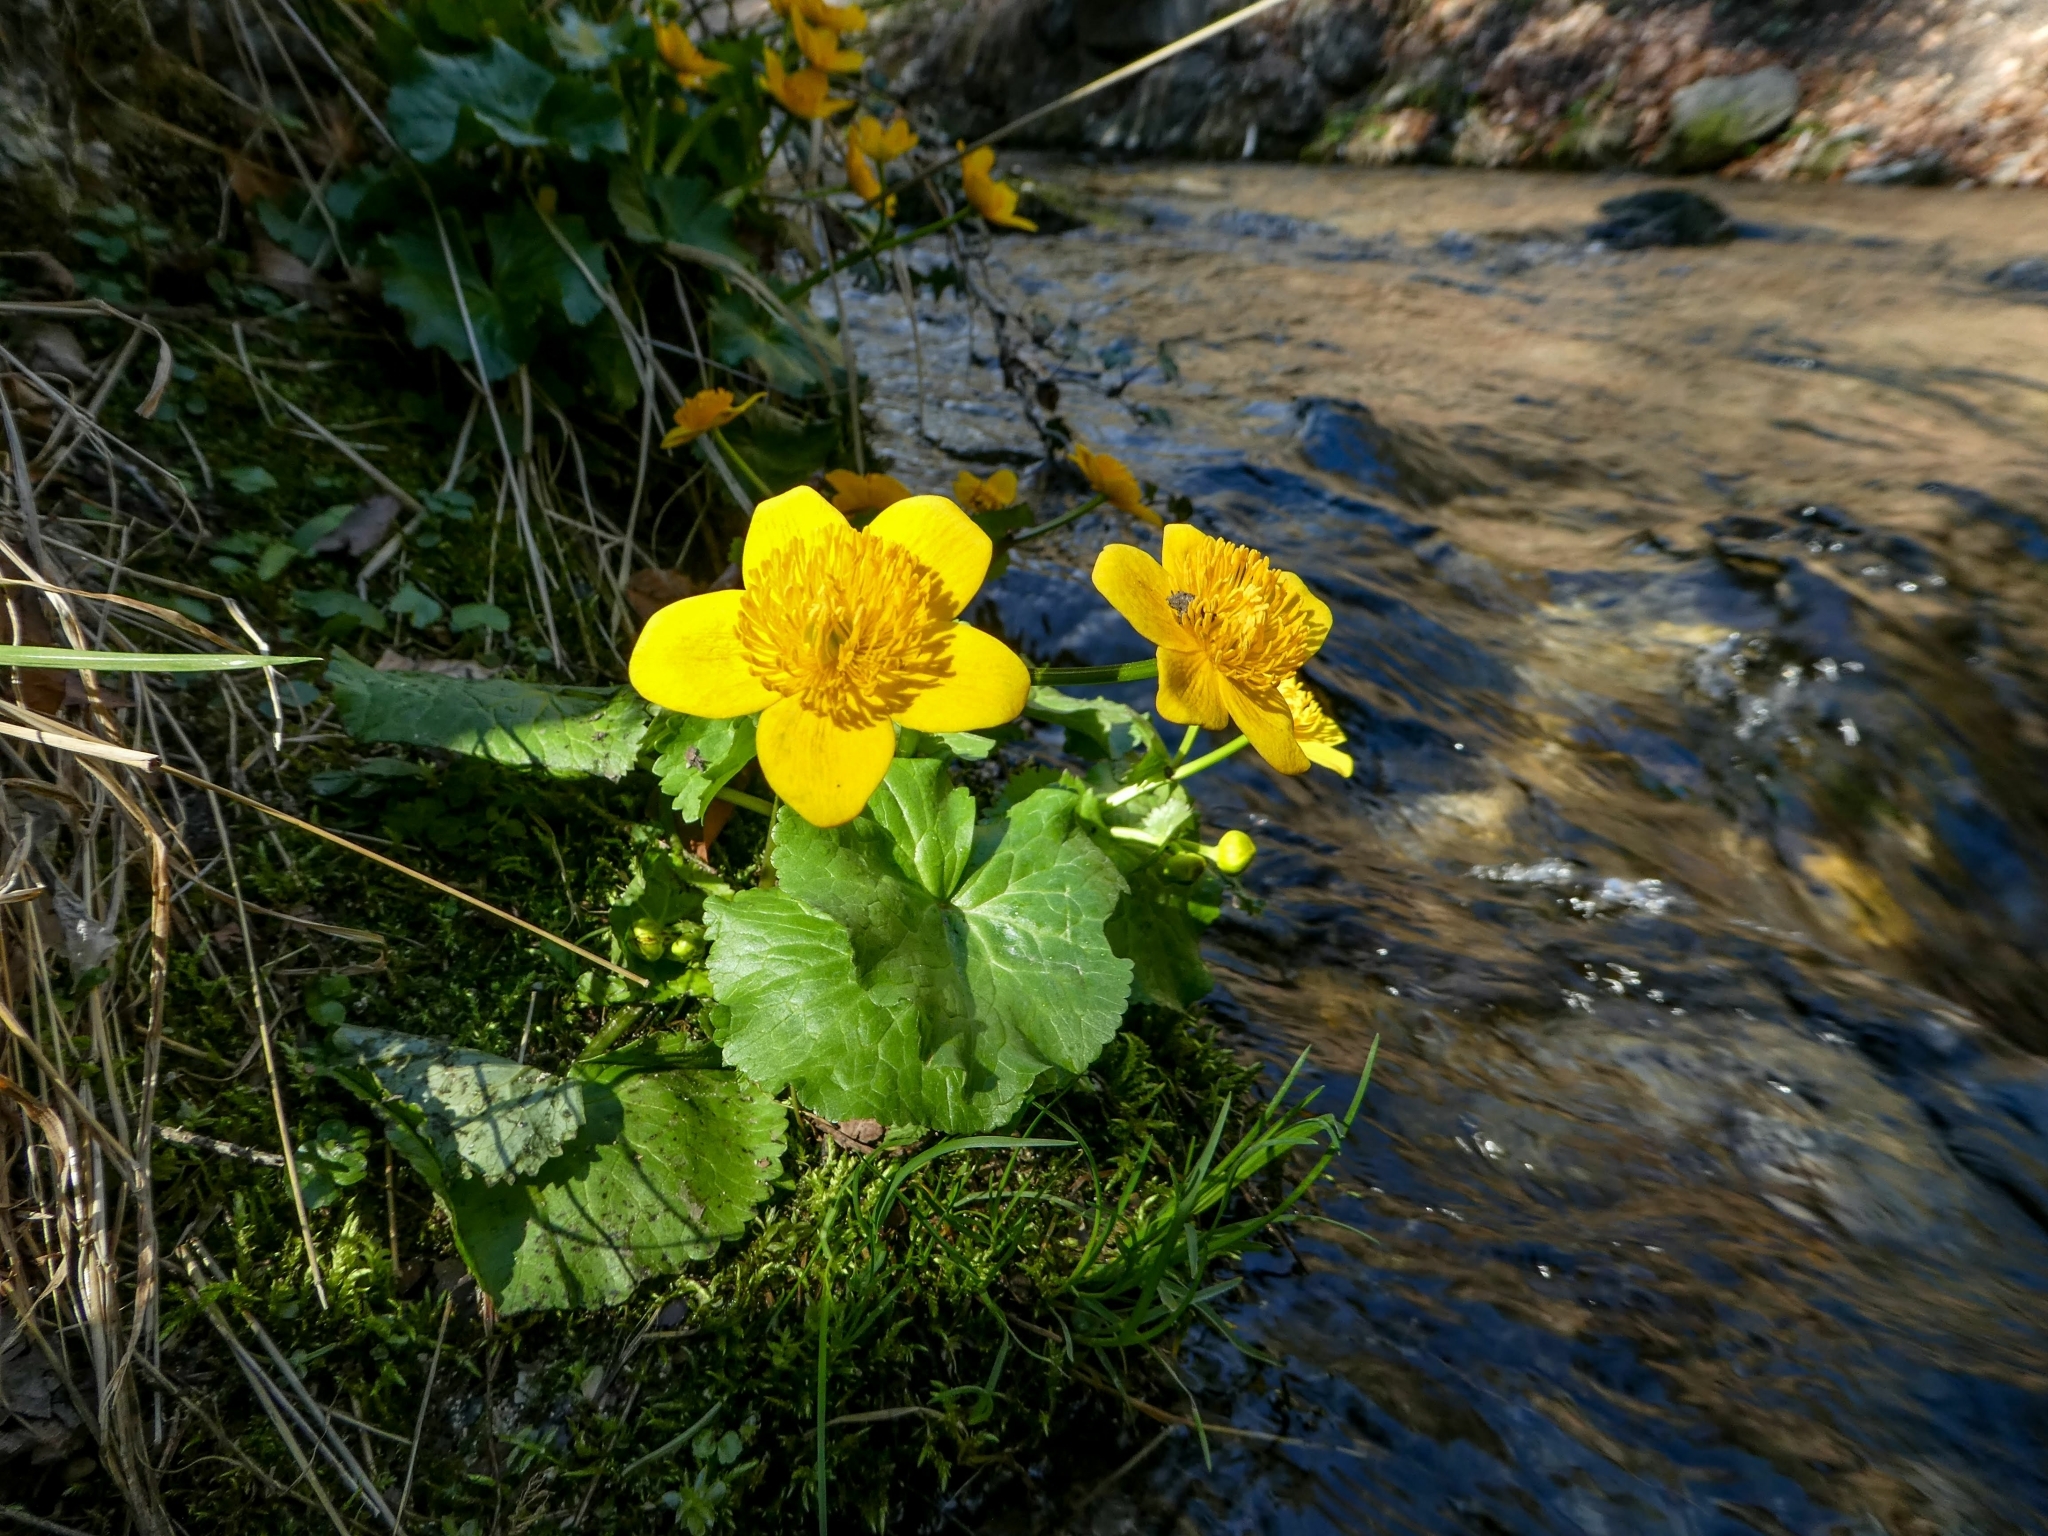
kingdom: Plantae
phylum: Tracheophyta
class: Magnoliopsida
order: Ranunculales
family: Ranunculaceae
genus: Caltha
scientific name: Caltha palustris
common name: Marsh marigold
